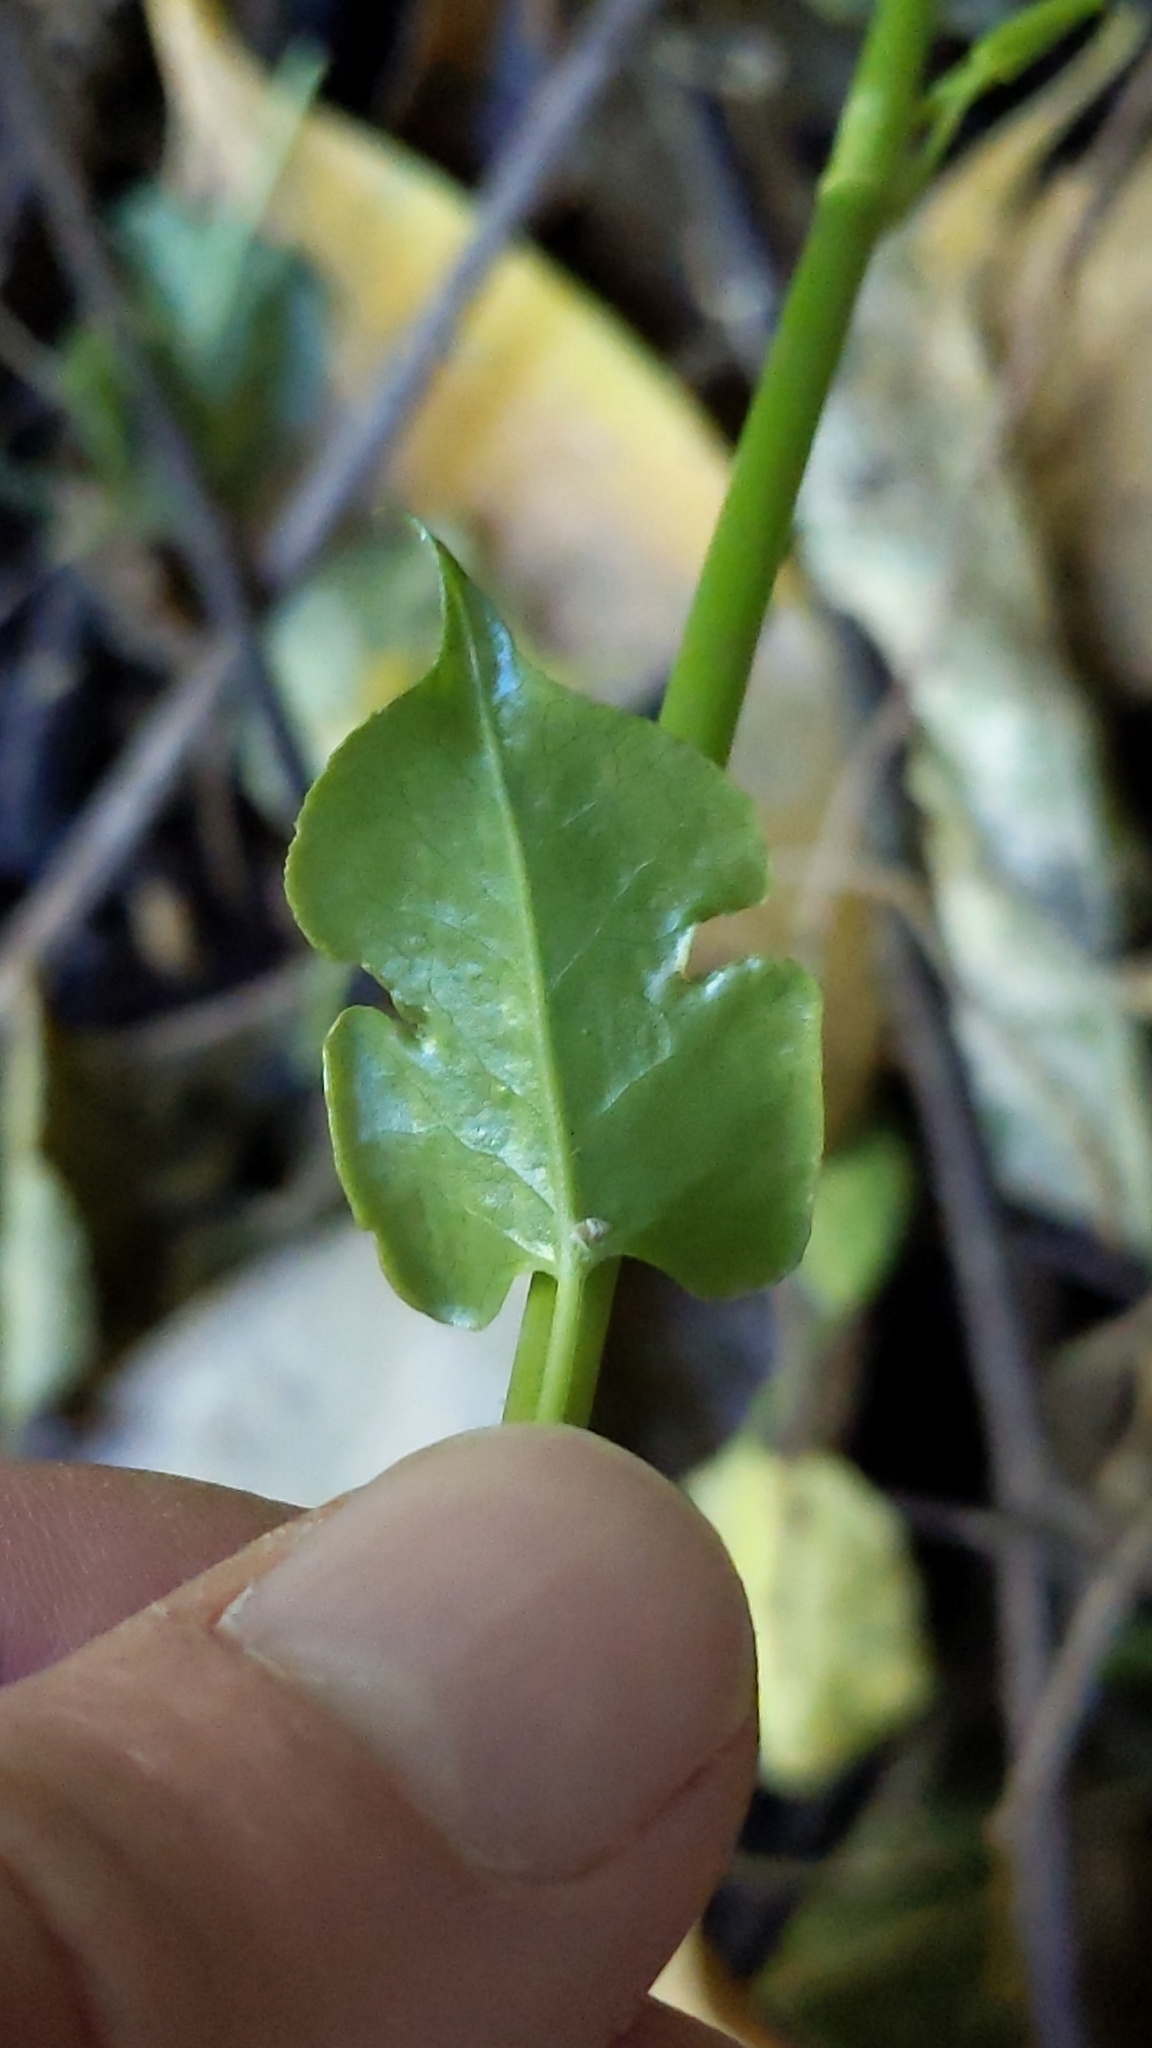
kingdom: Plantae
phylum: Tracheophyta
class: Magnoliopsida
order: Caryophyllales
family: Polygonaceae
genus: Muehlenbeckia
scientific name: Muehlenbeckia australis
